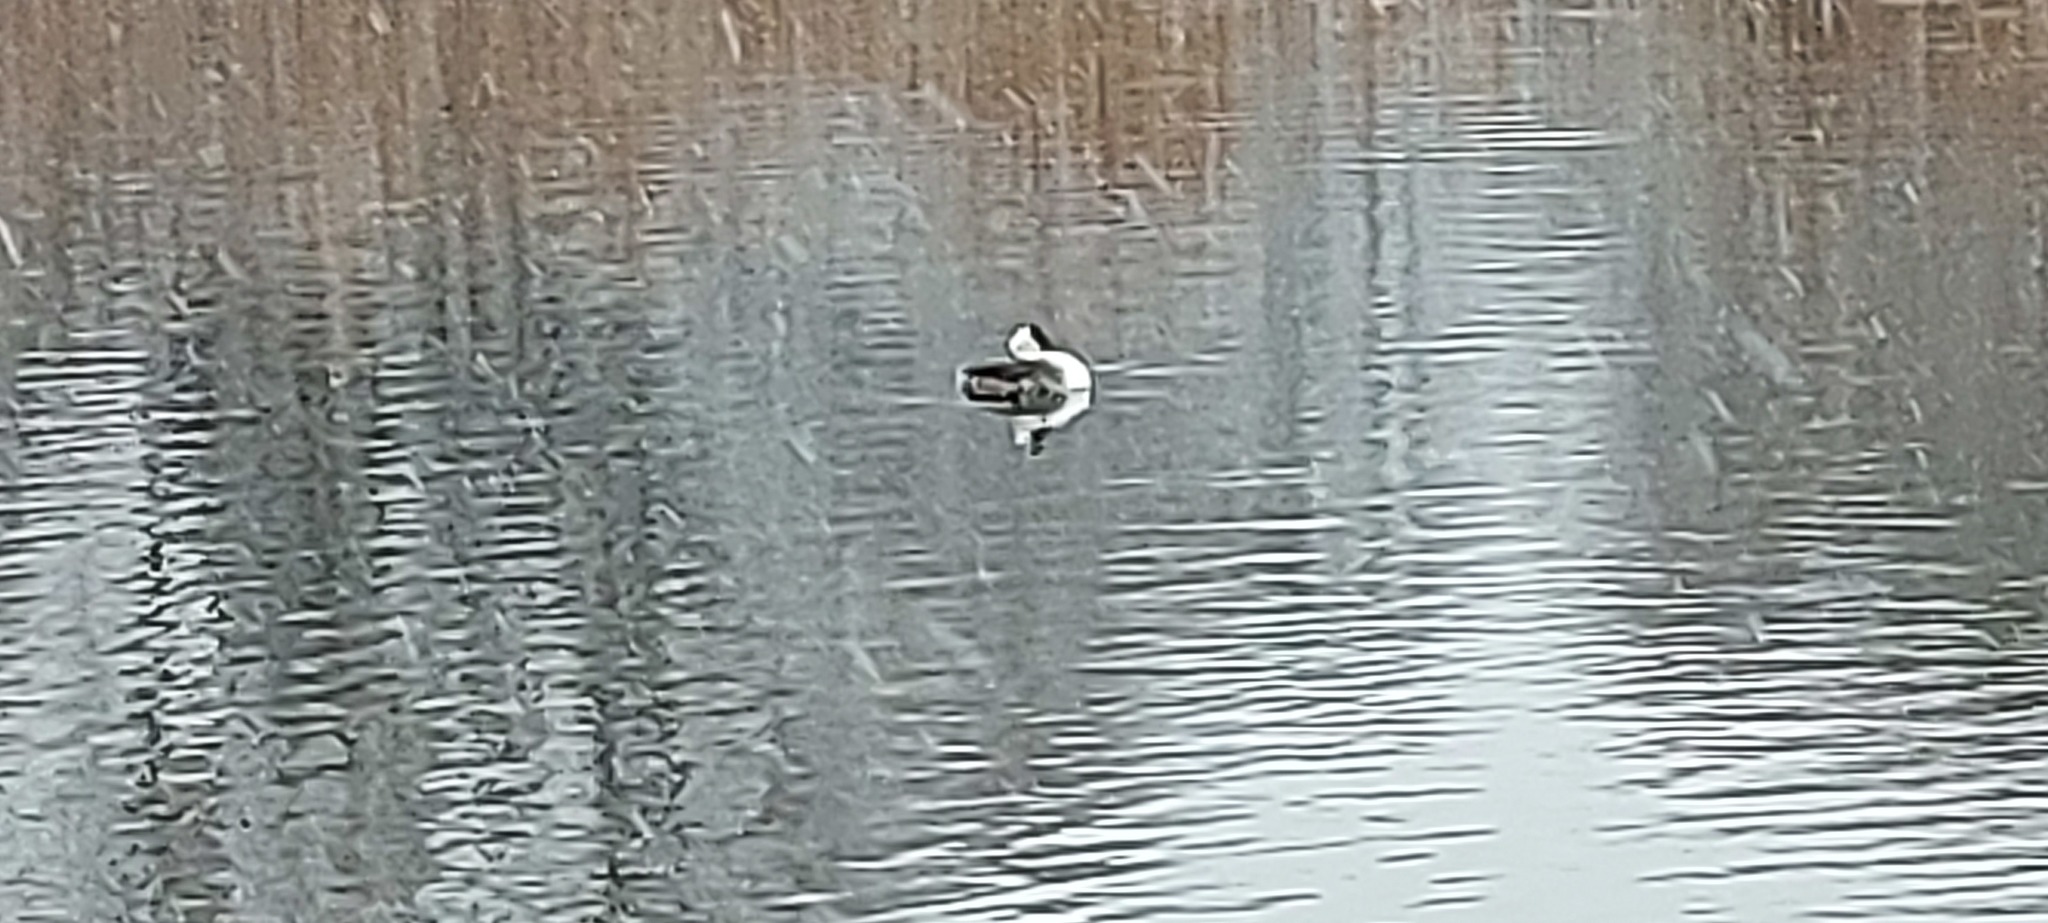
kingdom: Animalia
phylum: Chordata
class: Aves
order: Podicipediformes
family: Podicipedidae
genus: Podiceps
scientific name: Podiceps cristatus
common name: Great crested grebe
